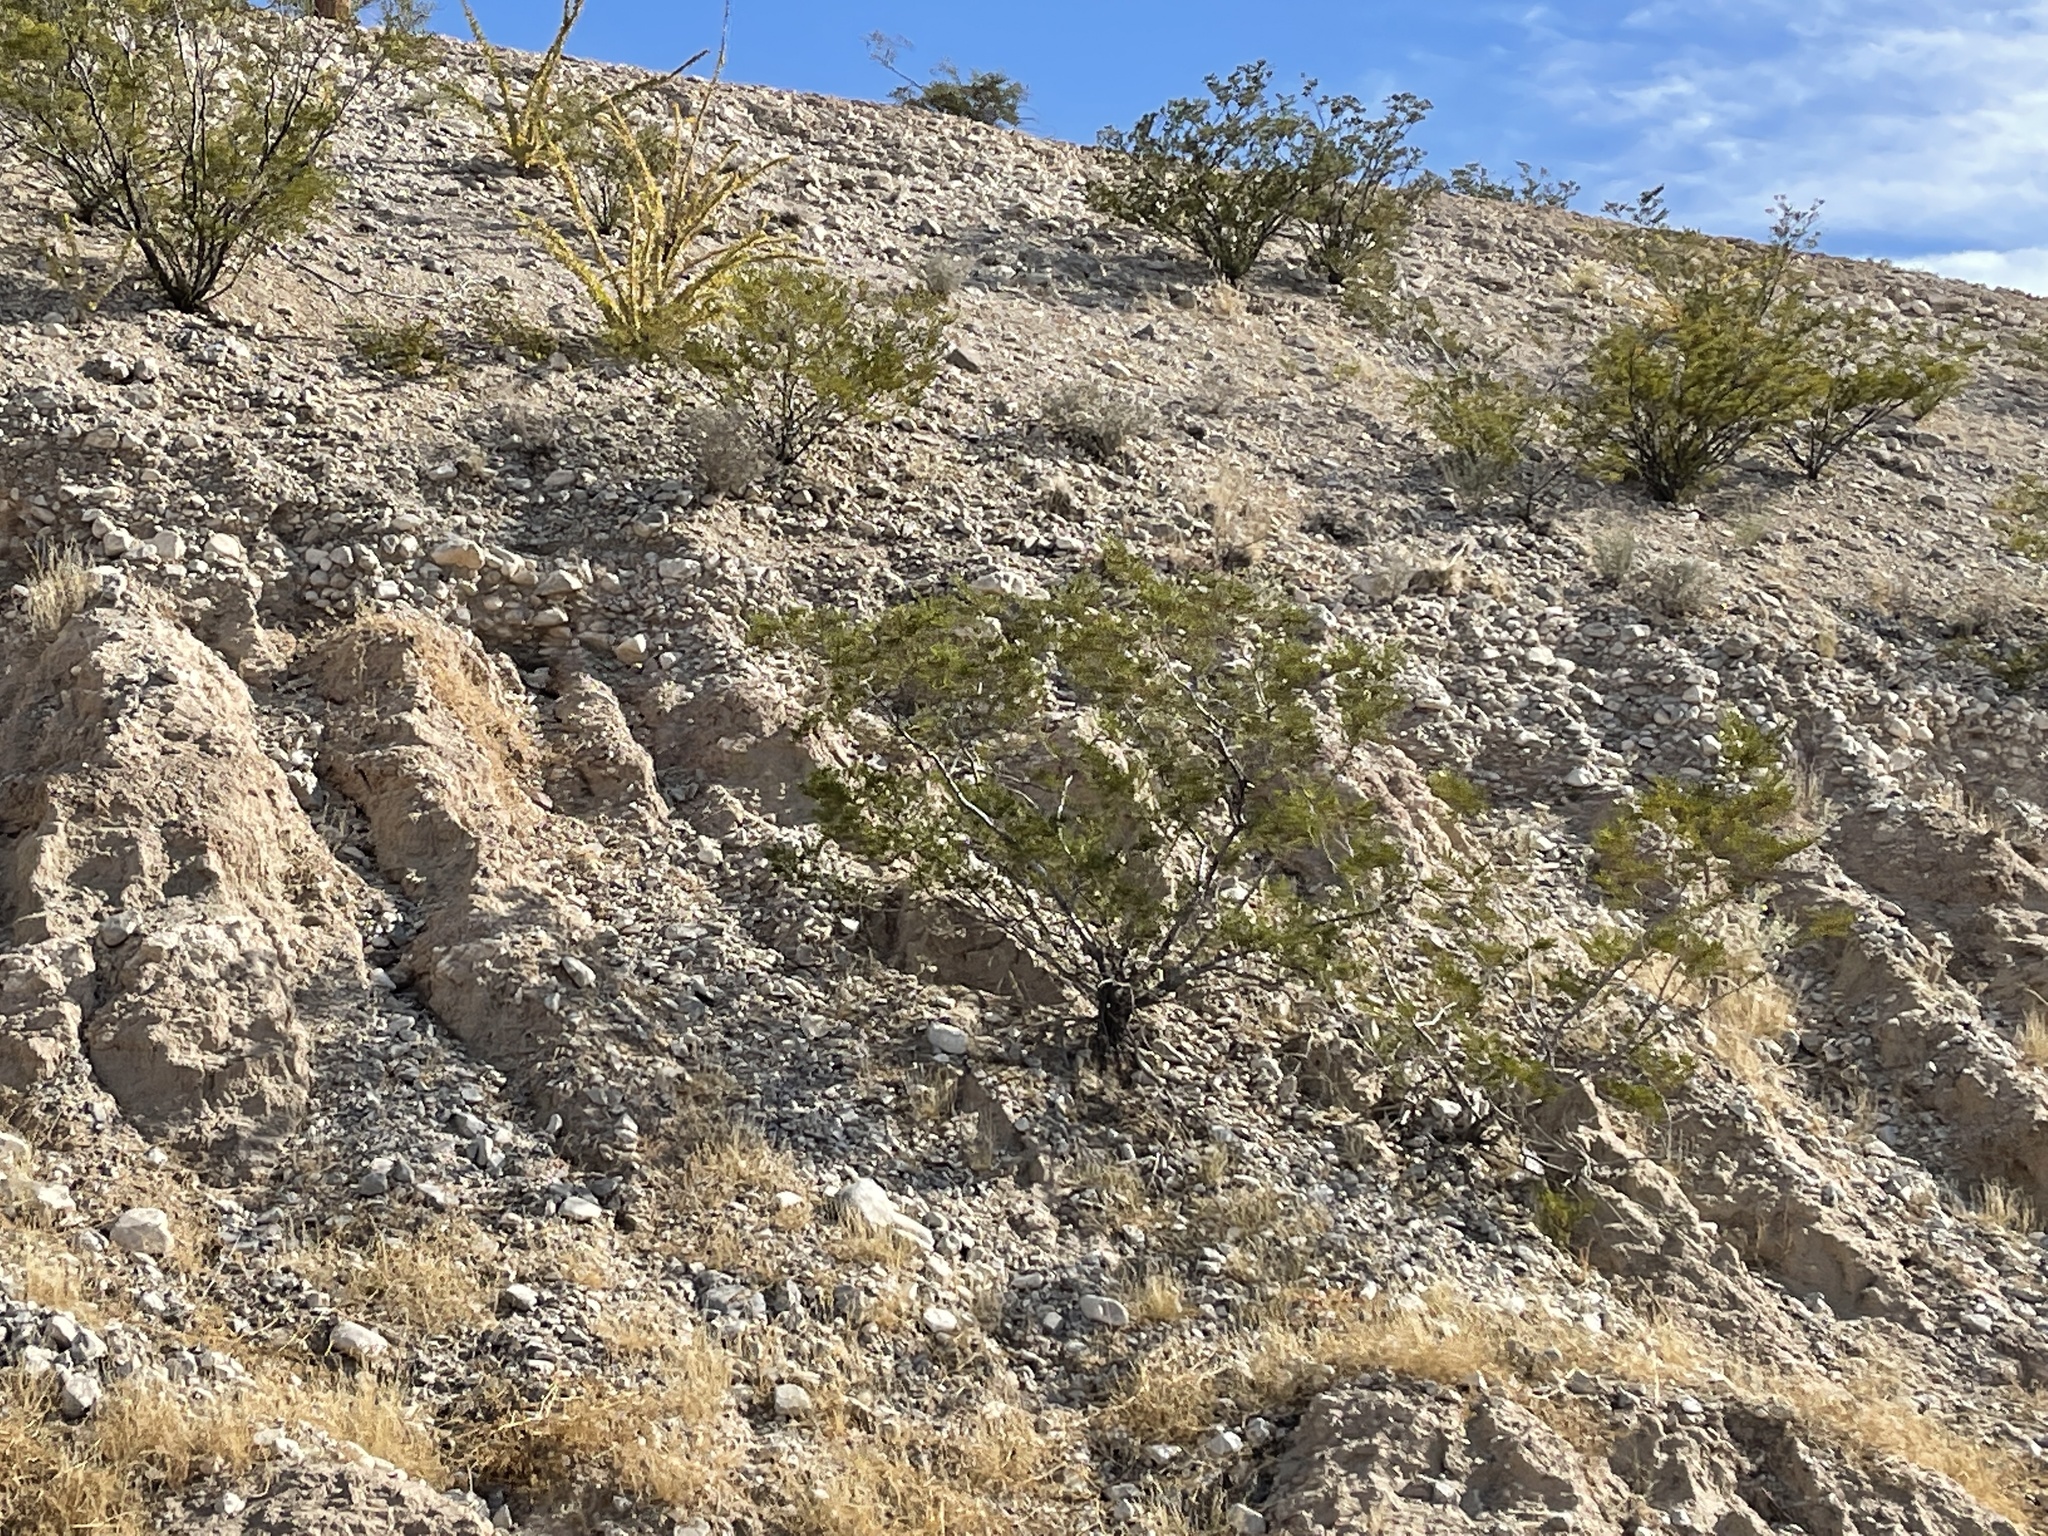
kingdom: Plantae
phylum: Tracheophyta
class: Magnoliopsida
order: Zygophyllales
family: Zygophyllaceae
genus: Larrea
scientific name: Larrea tridentata
